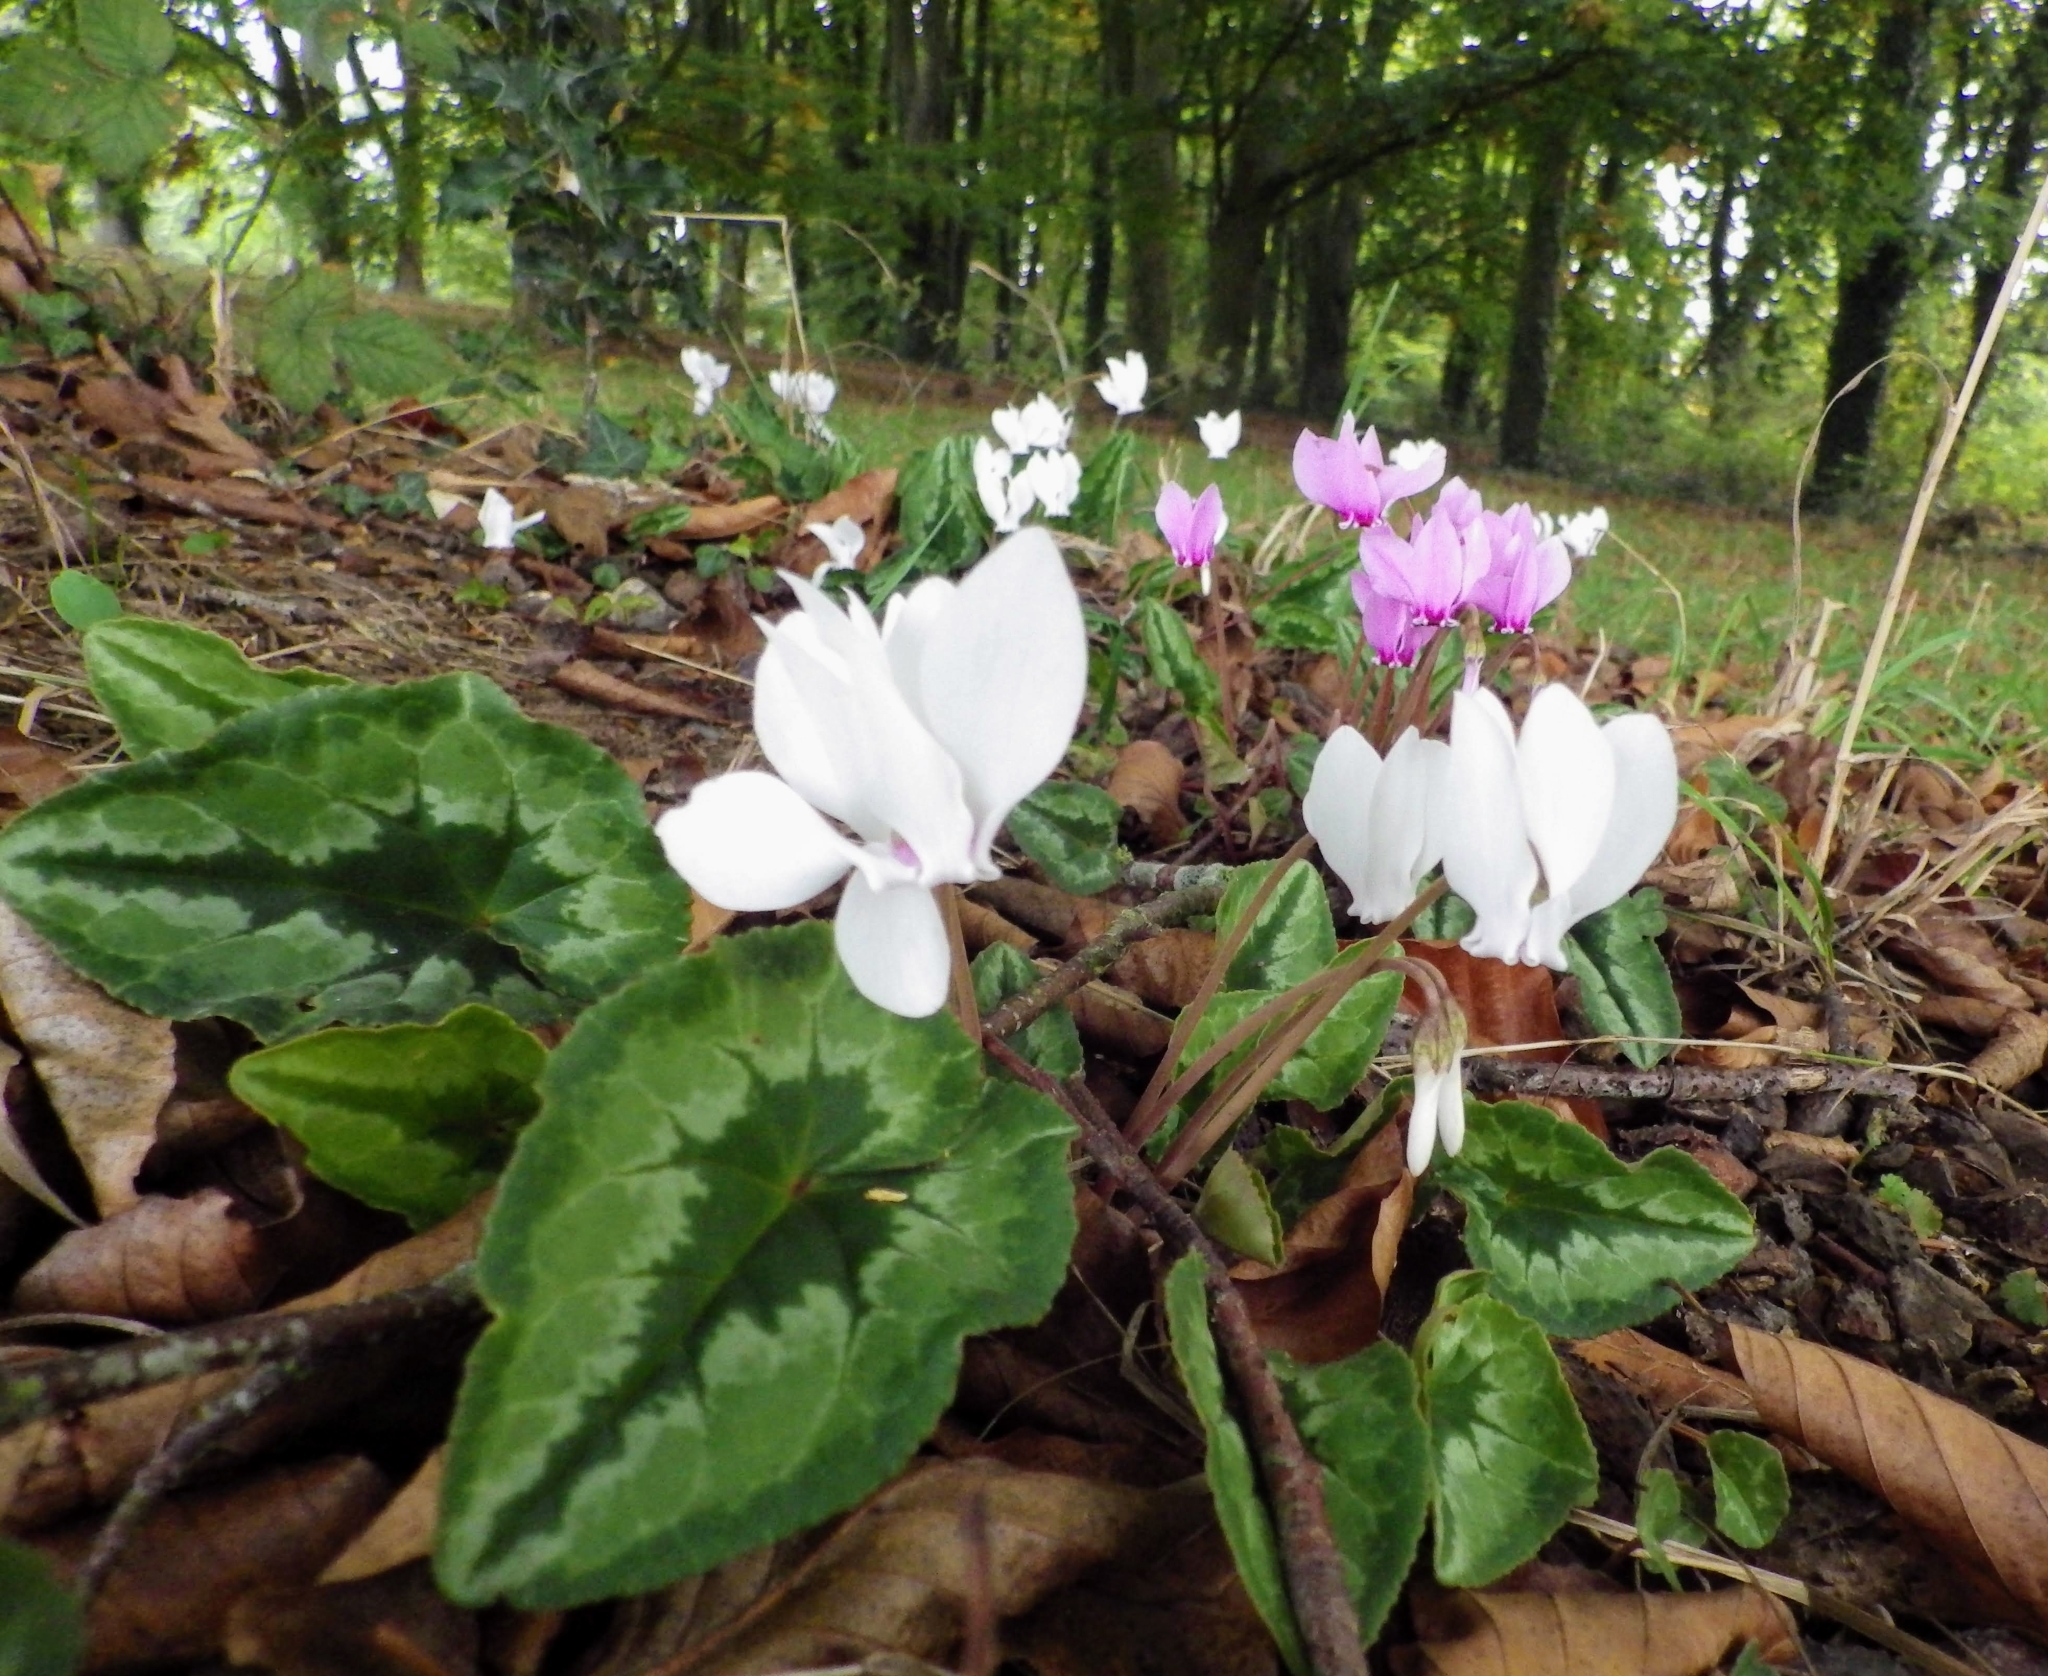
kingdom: Plantae
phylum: Tracheophyta
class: Magnoliopsida
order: Ericales
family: Primulaceae
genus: Cyclamen
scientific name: Cyclamen hederifolium
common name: Sowbread
